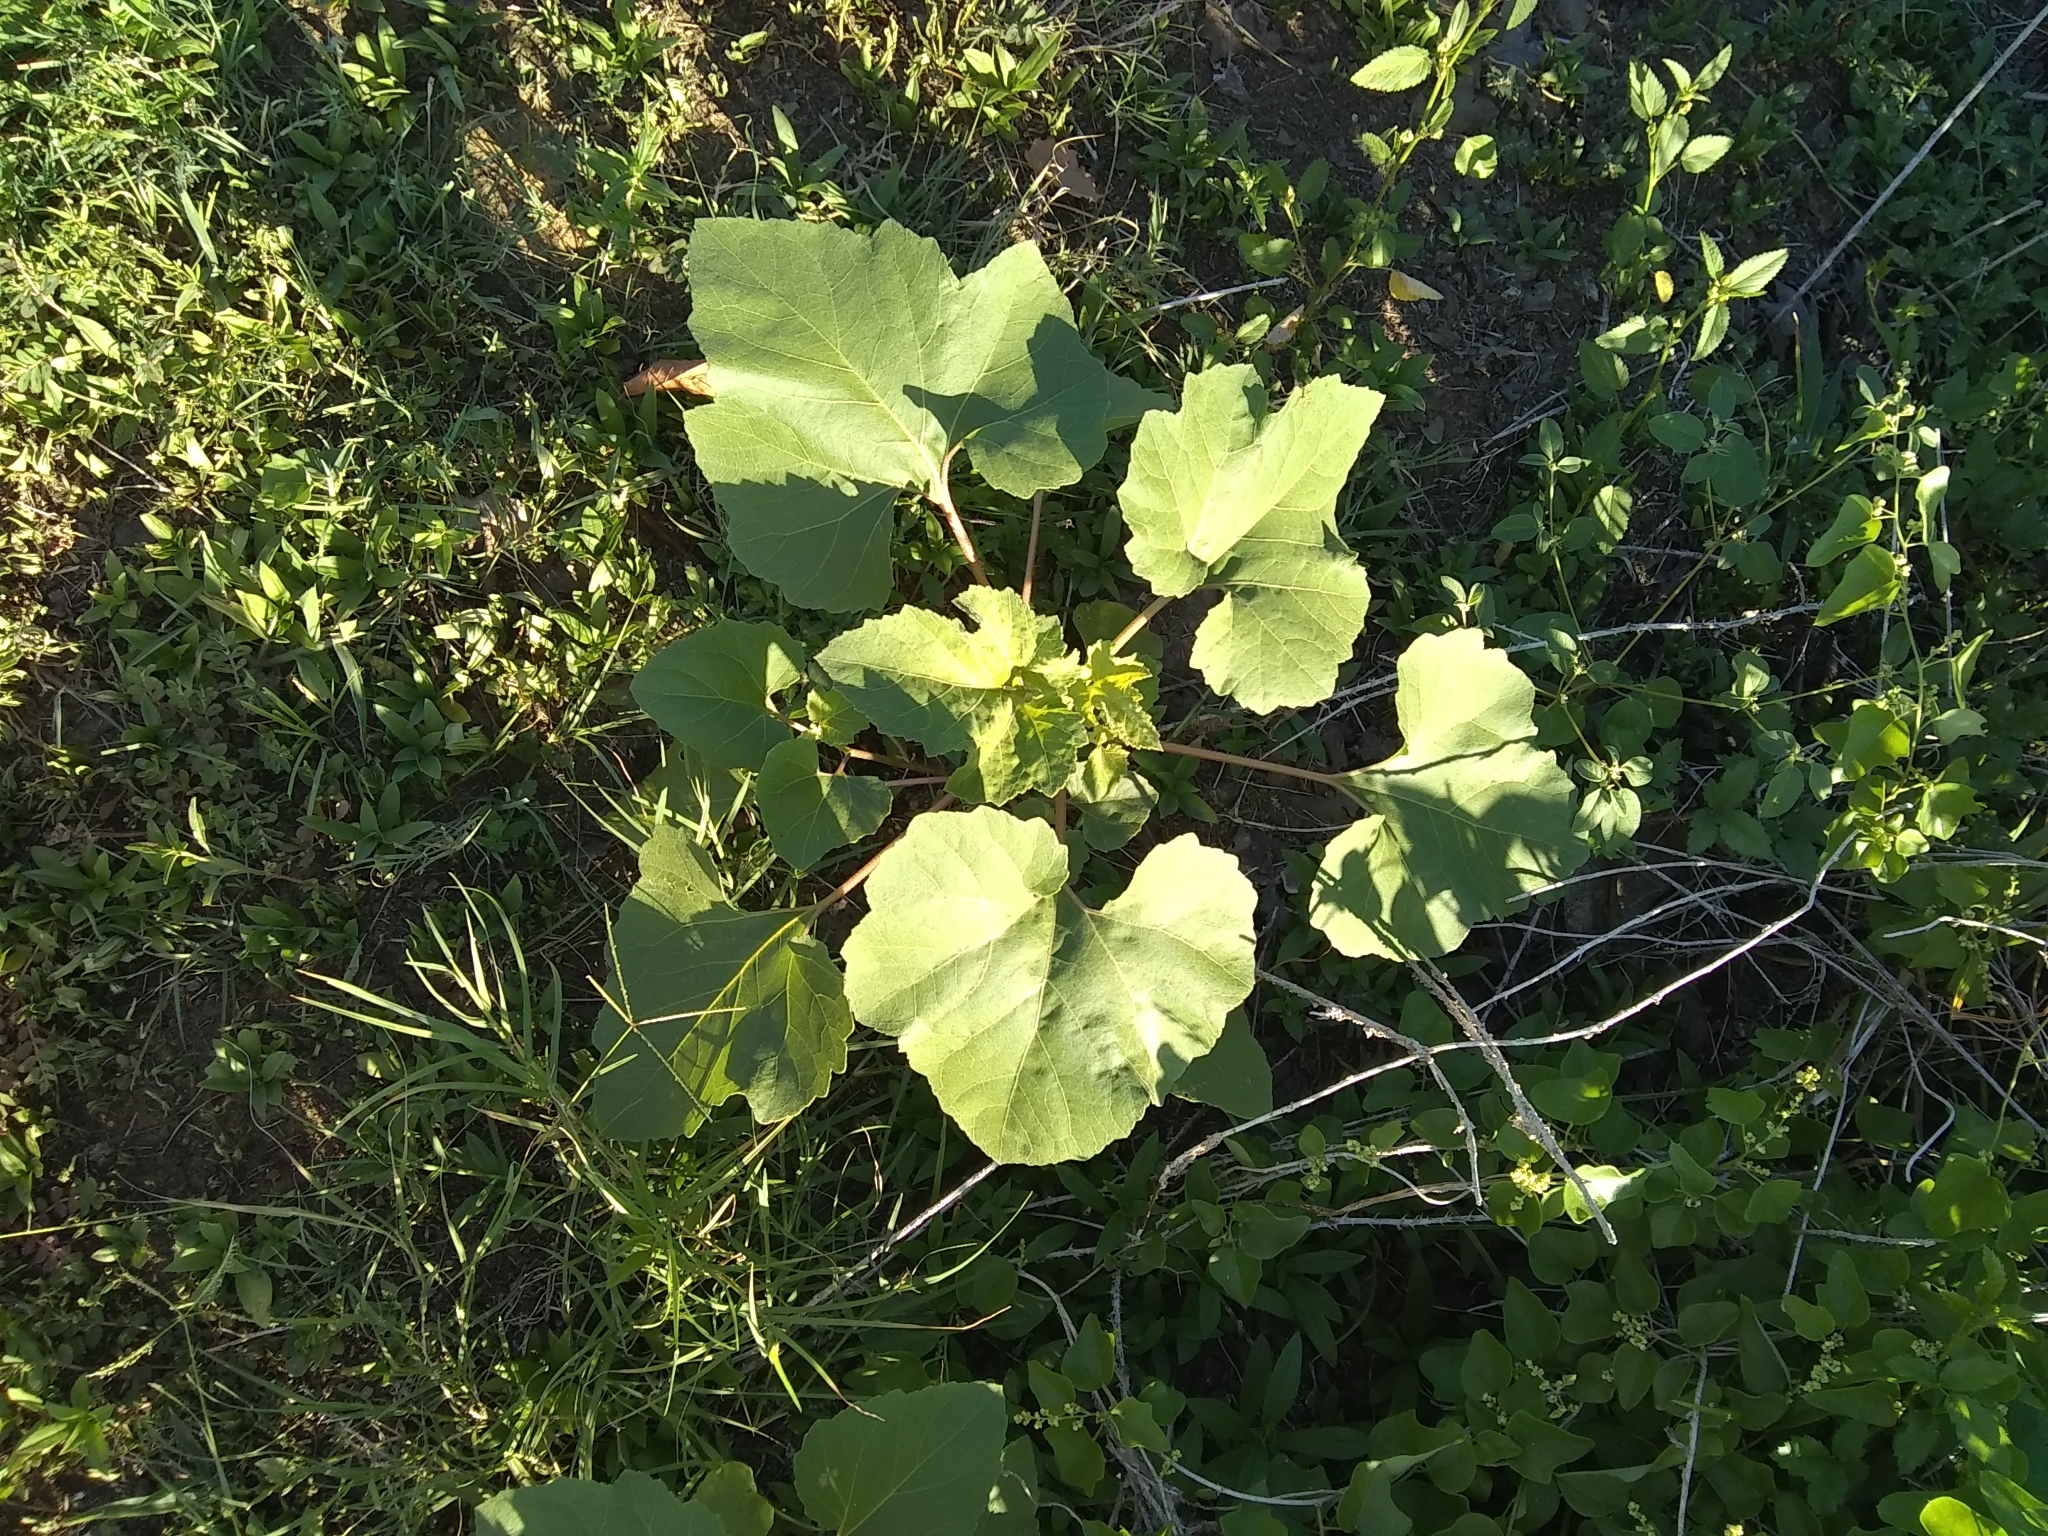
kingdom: Plantae
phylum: Tracheophyta
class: Magnoliopsida
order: Asterales
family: Asteraceae
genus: Xanthium
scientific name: Xanthium strumarium
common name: Rough cocklebur
